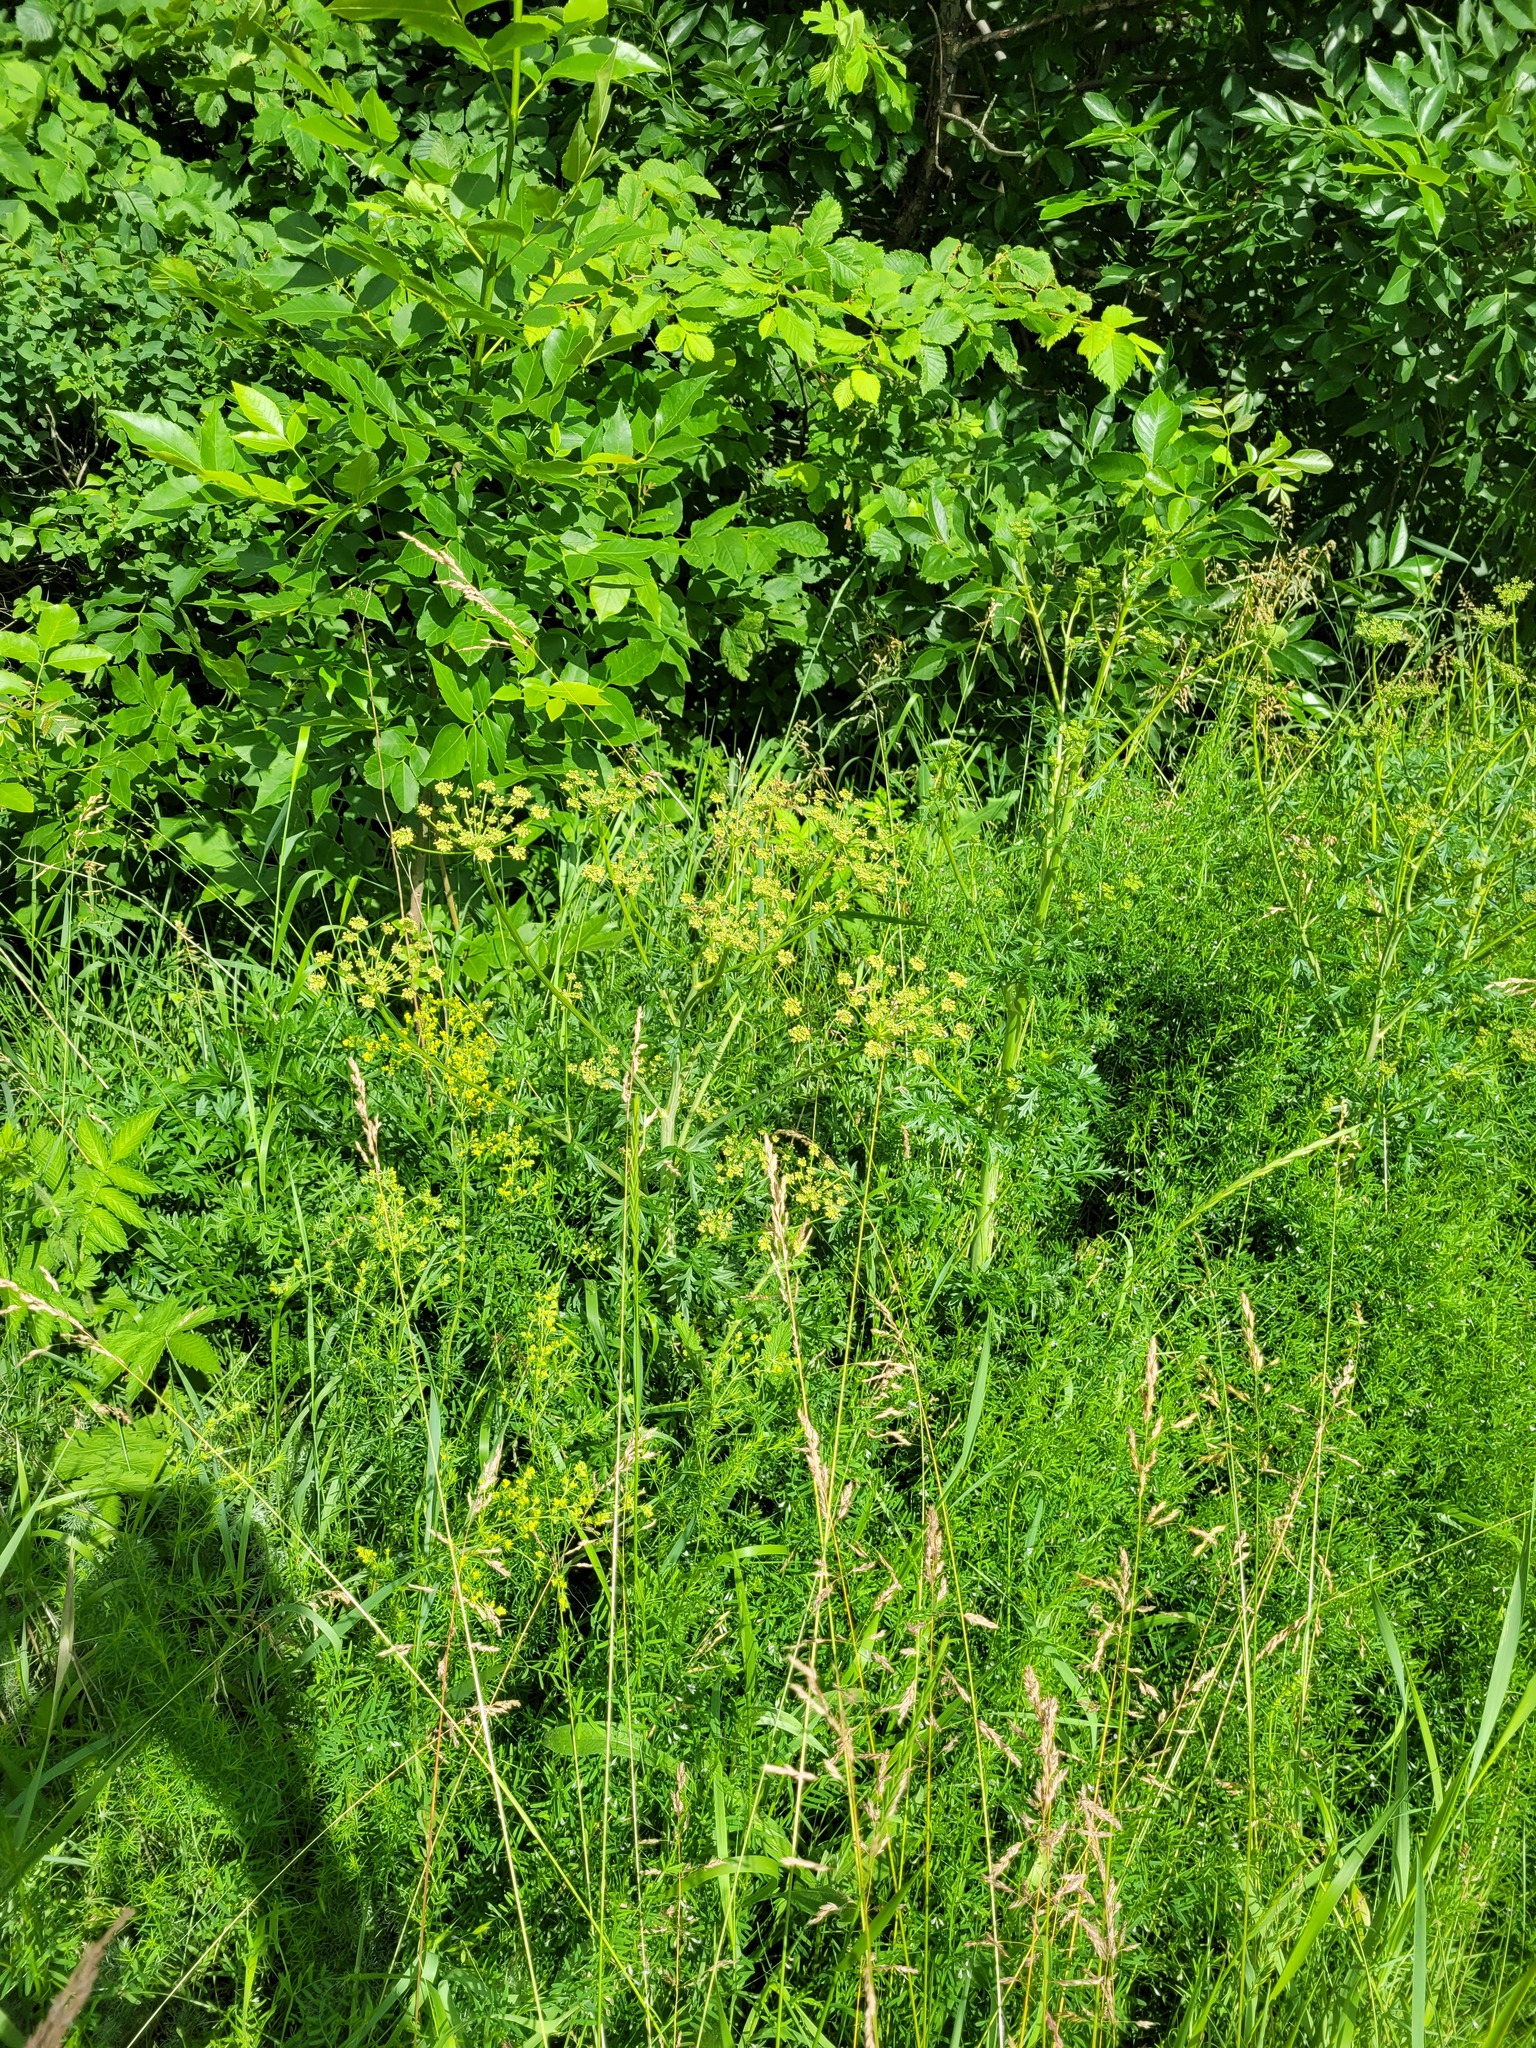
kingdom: Plantae
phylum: Tracheophyta
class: Magnoliopsida
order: Apiales
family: Apiaceae
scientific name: Apiaceae
